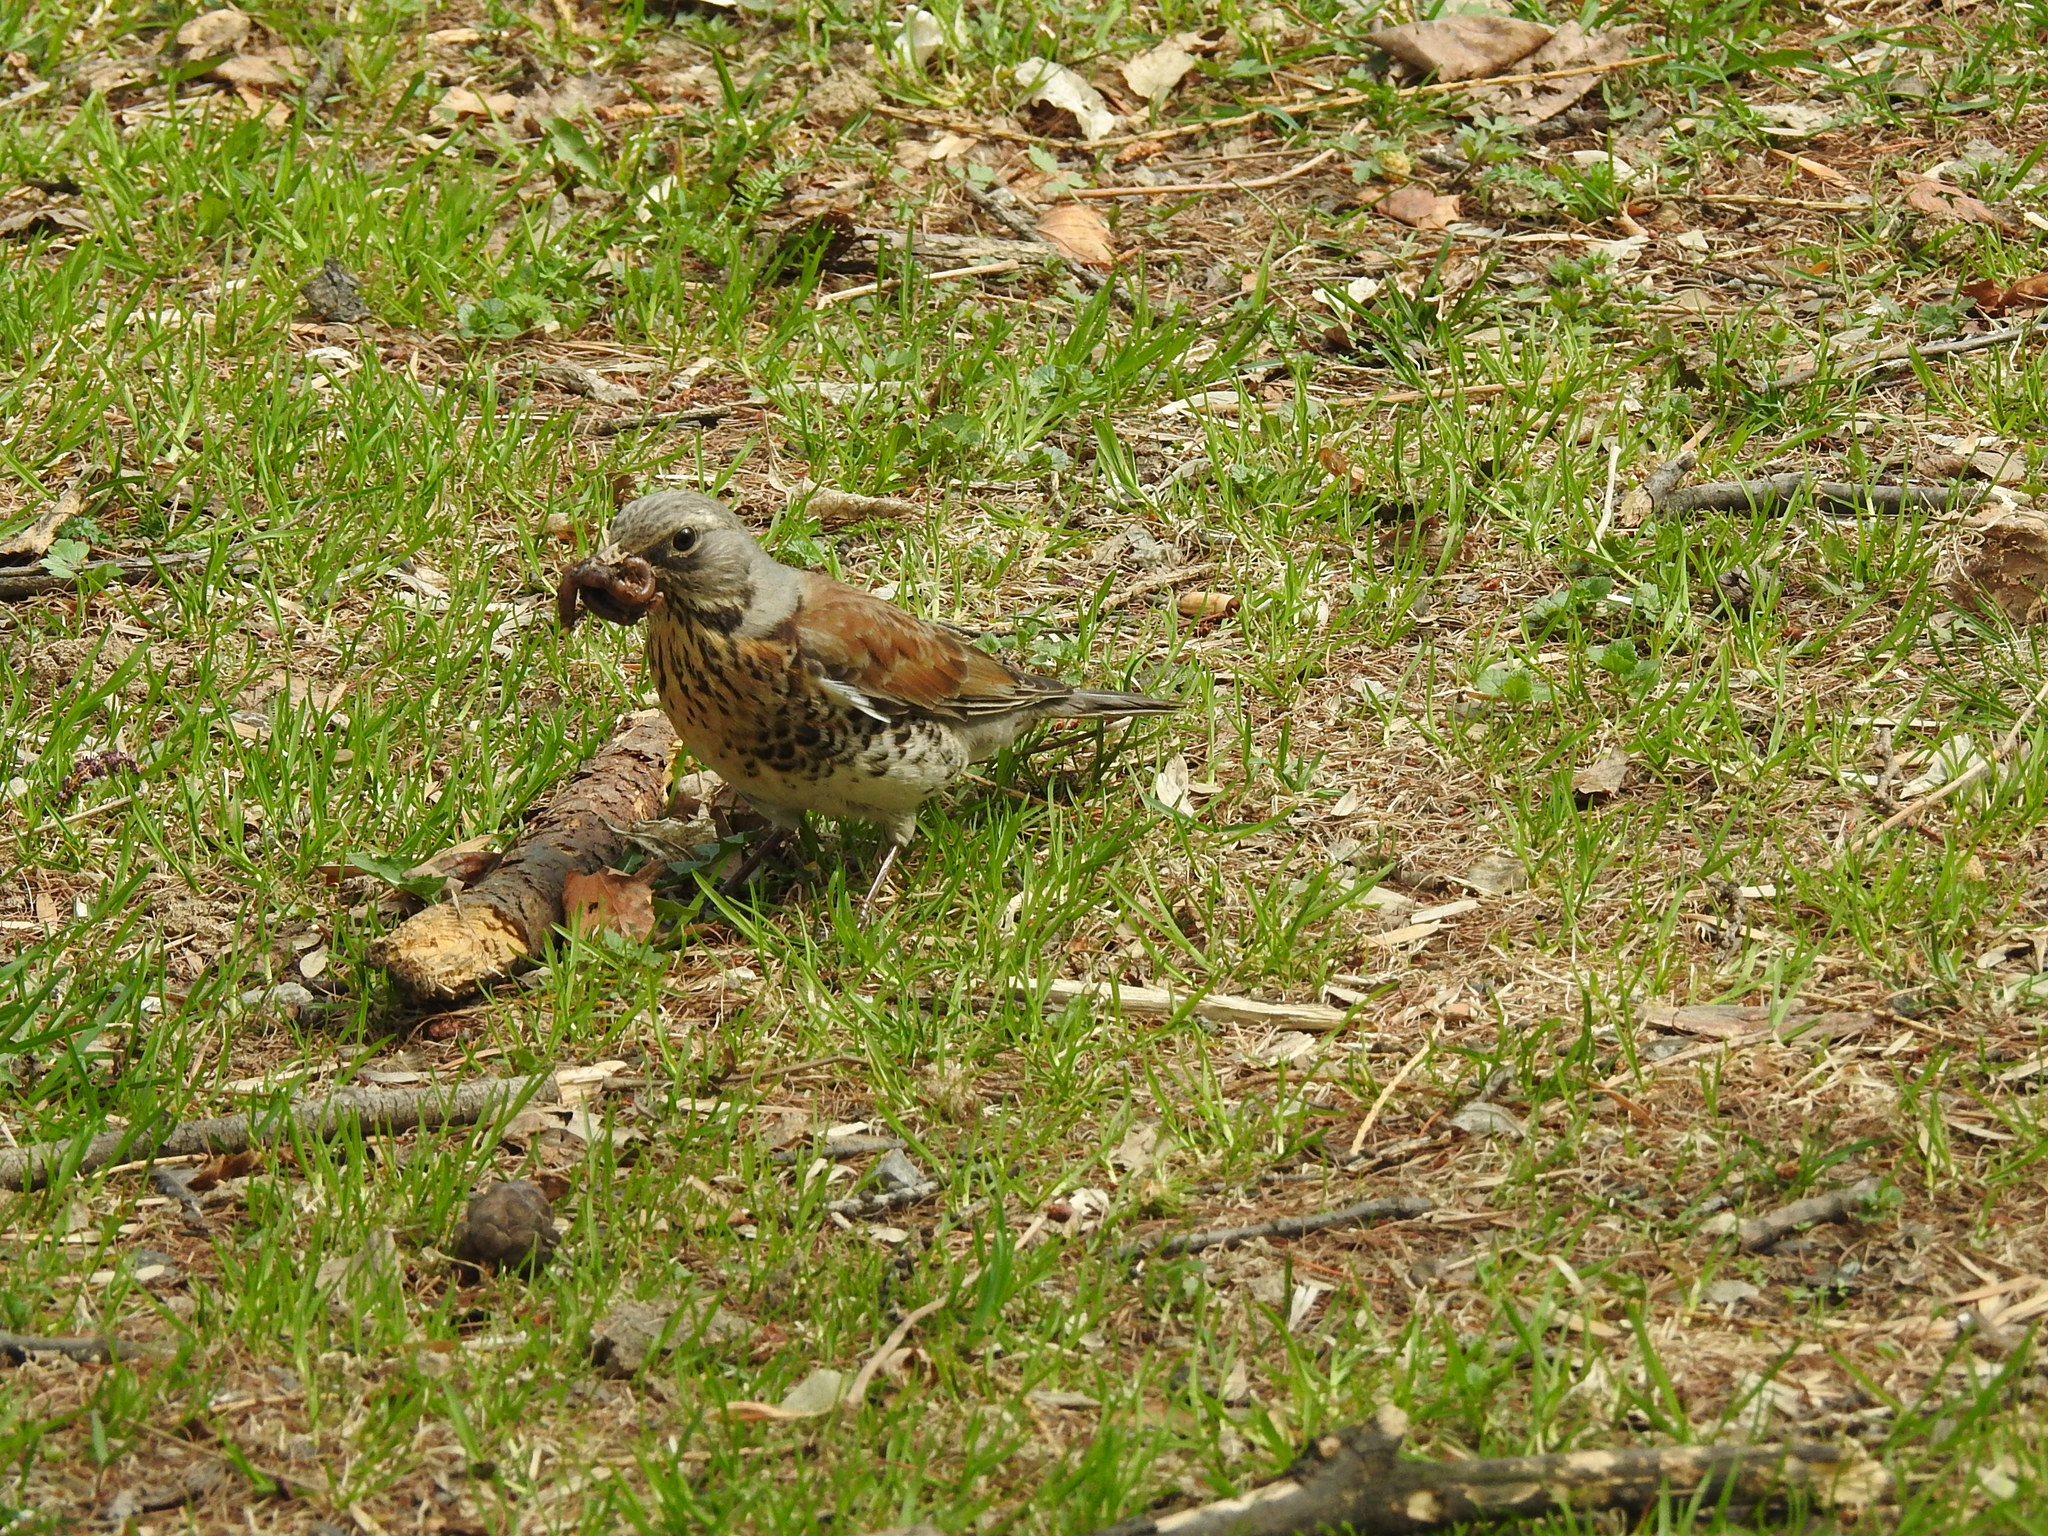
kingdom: Animalia
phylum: Chordata
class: Aves
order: Passeriformes
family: Turdidae
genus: Turdus
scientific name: Turdus pilaris
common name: Fieldfare
